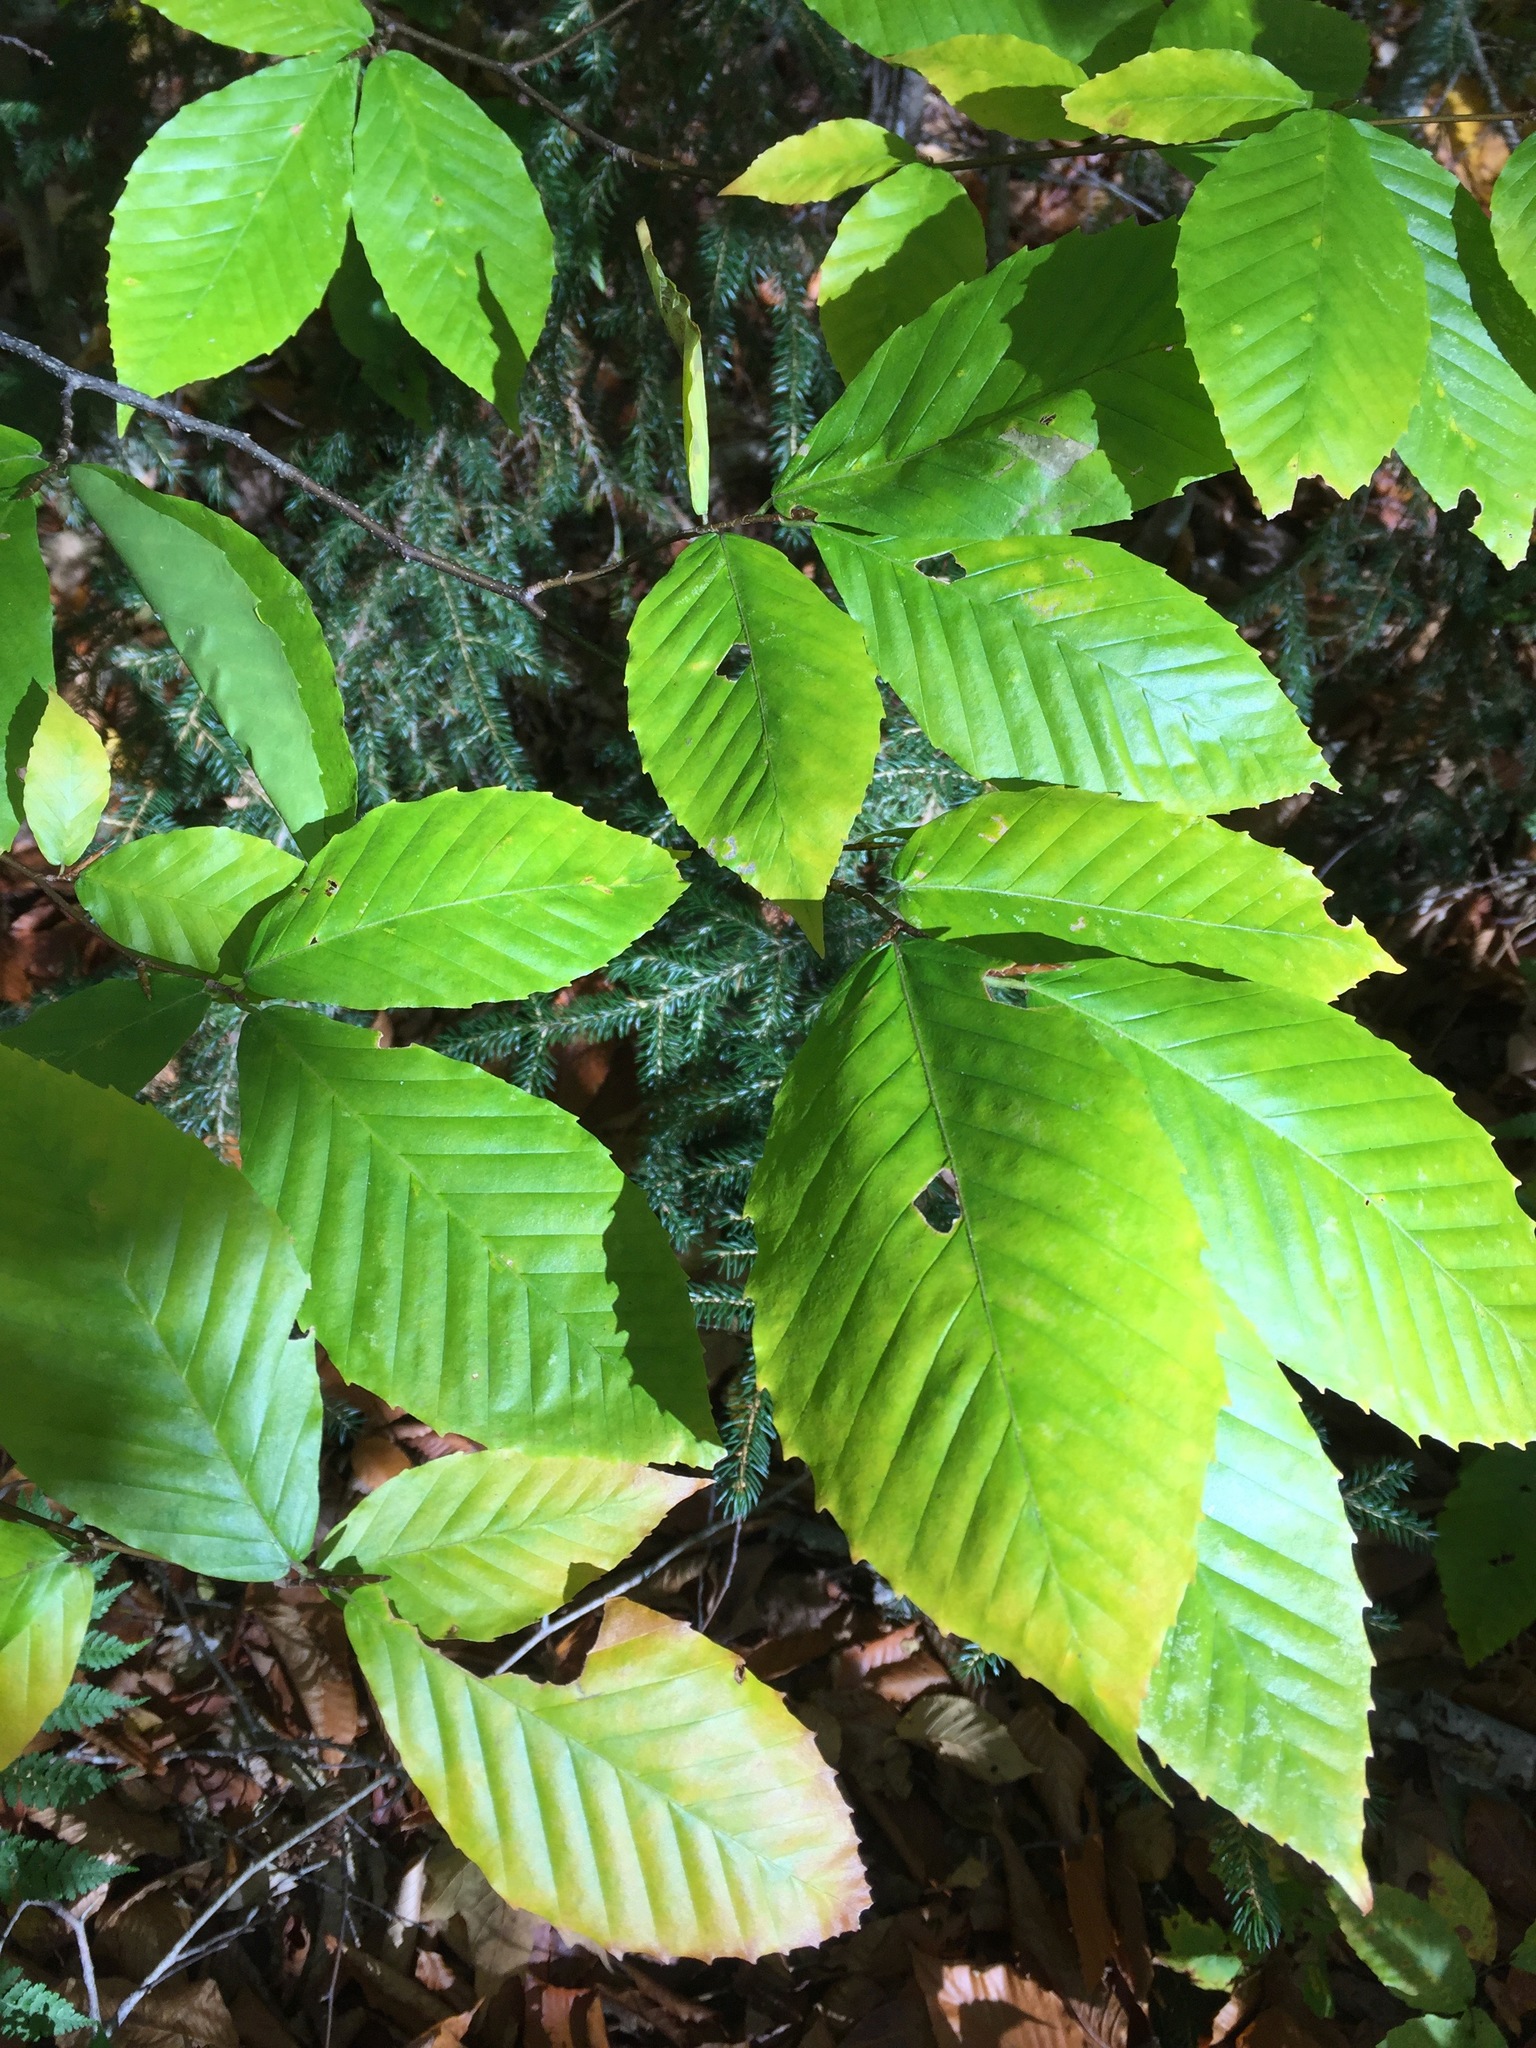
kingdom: Plantae
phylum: Tracheophyta
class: Magnoliopsida
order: Fagales
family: Fagaceae
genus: Fagus
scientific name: Fagus grandifolia
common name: American beech
